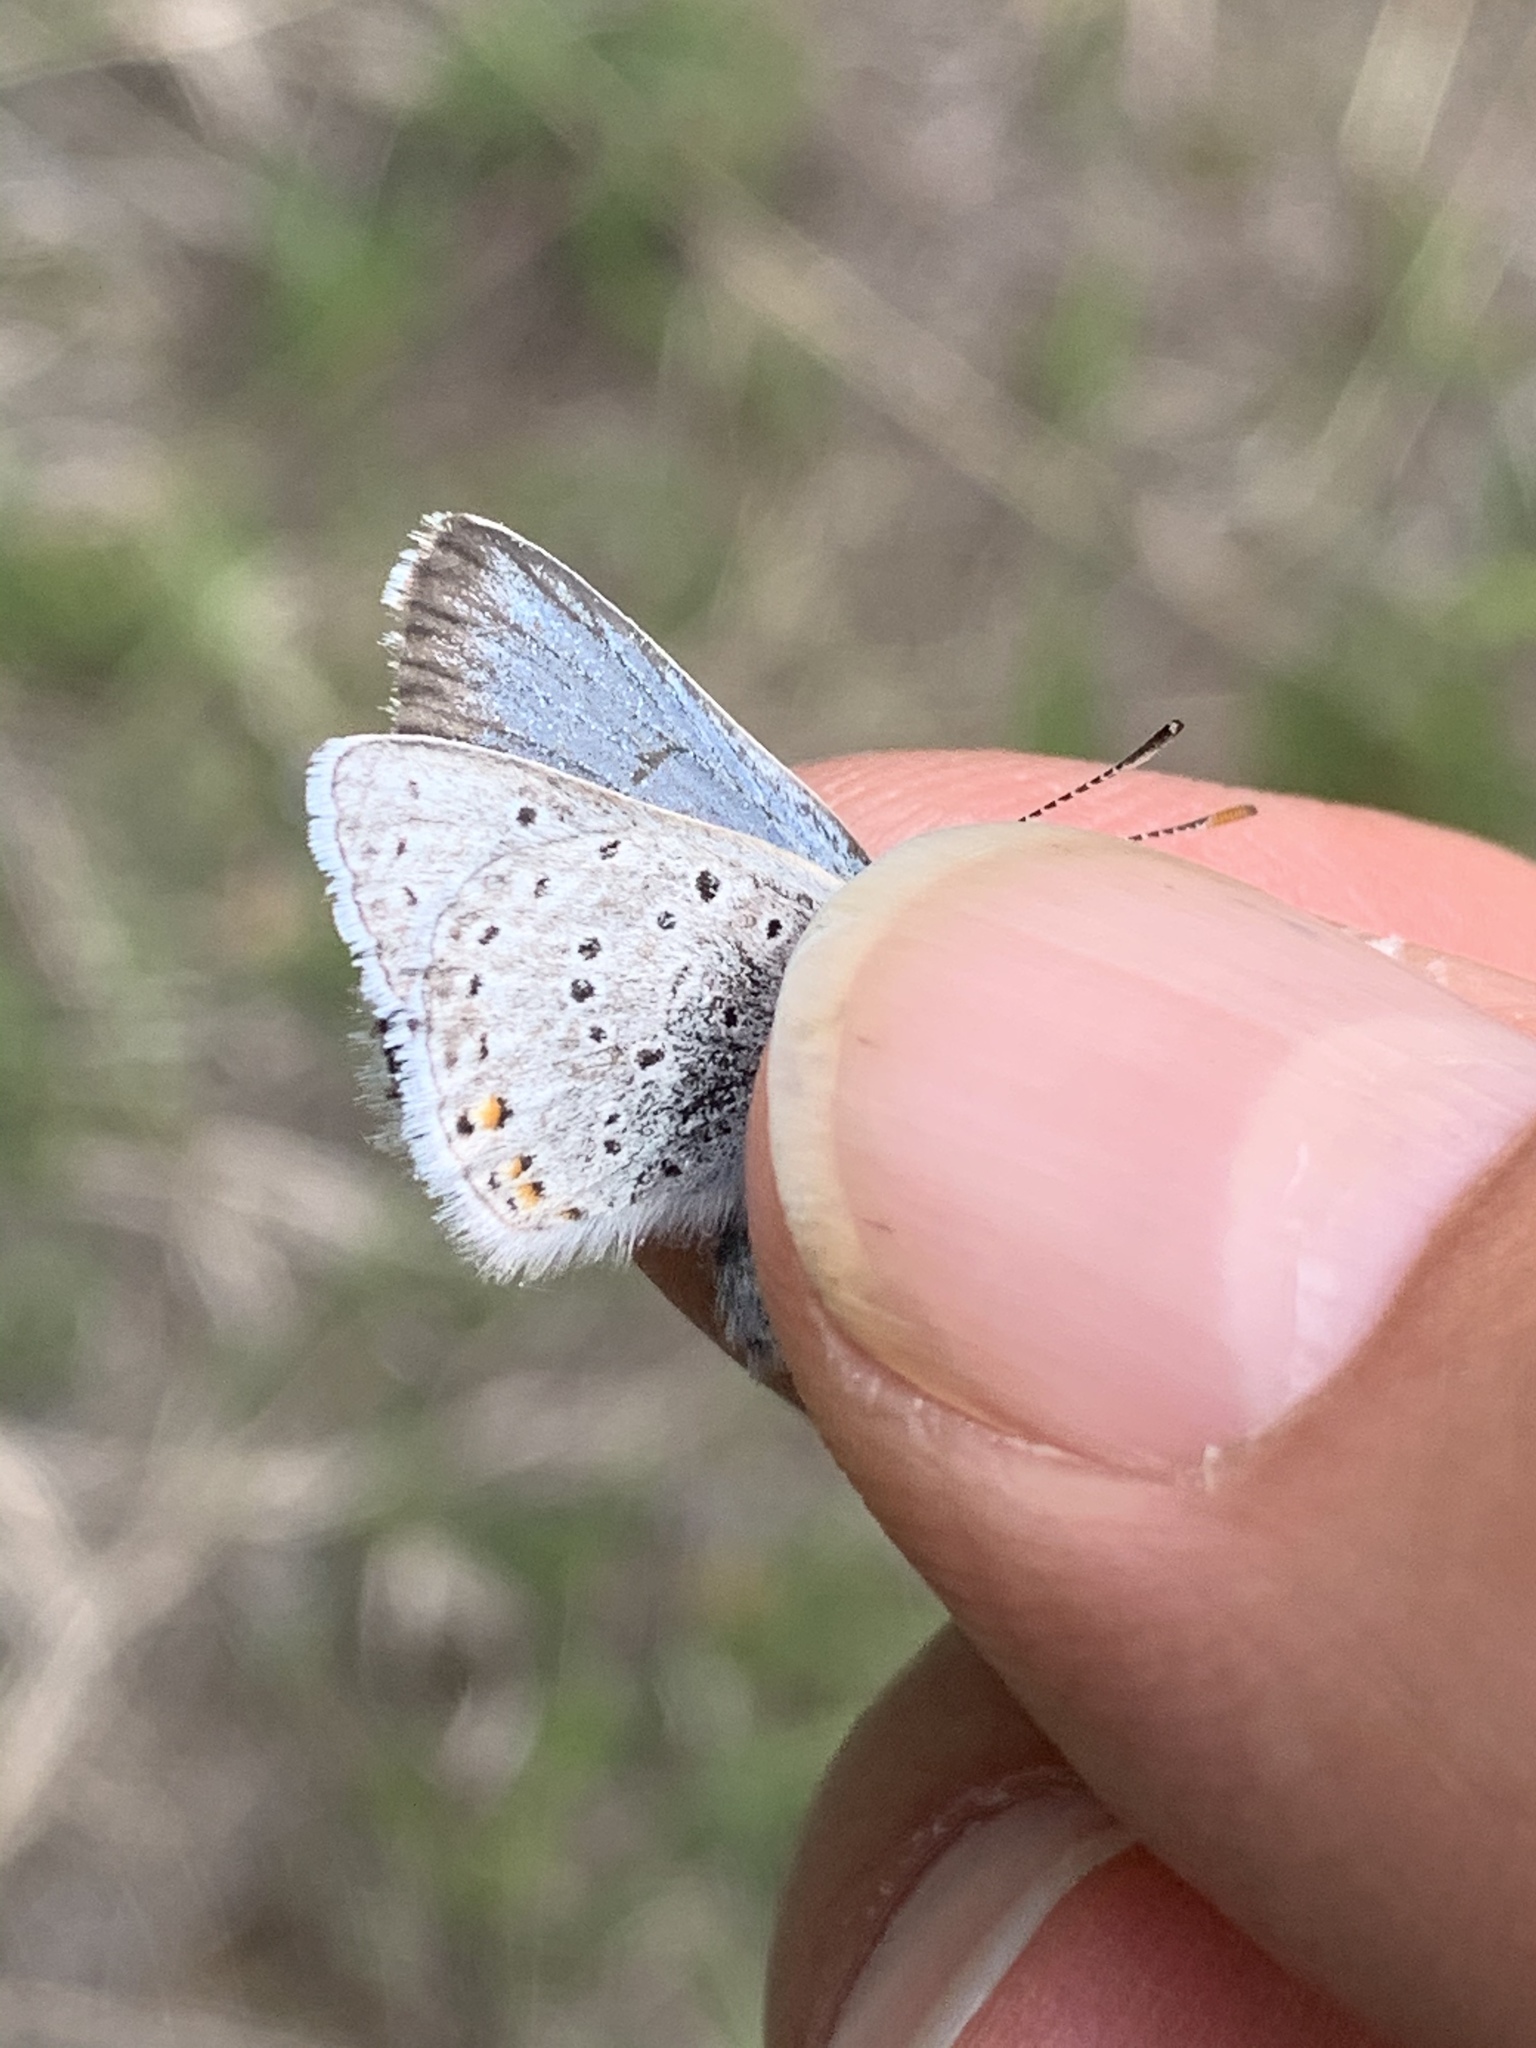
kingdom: Animalia
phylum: Arthropoda
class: Insecta
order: Lepidoptera
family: Lycaenidae
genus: Icaricia
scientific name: Icaricia saepiolus
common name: Greenish blue
